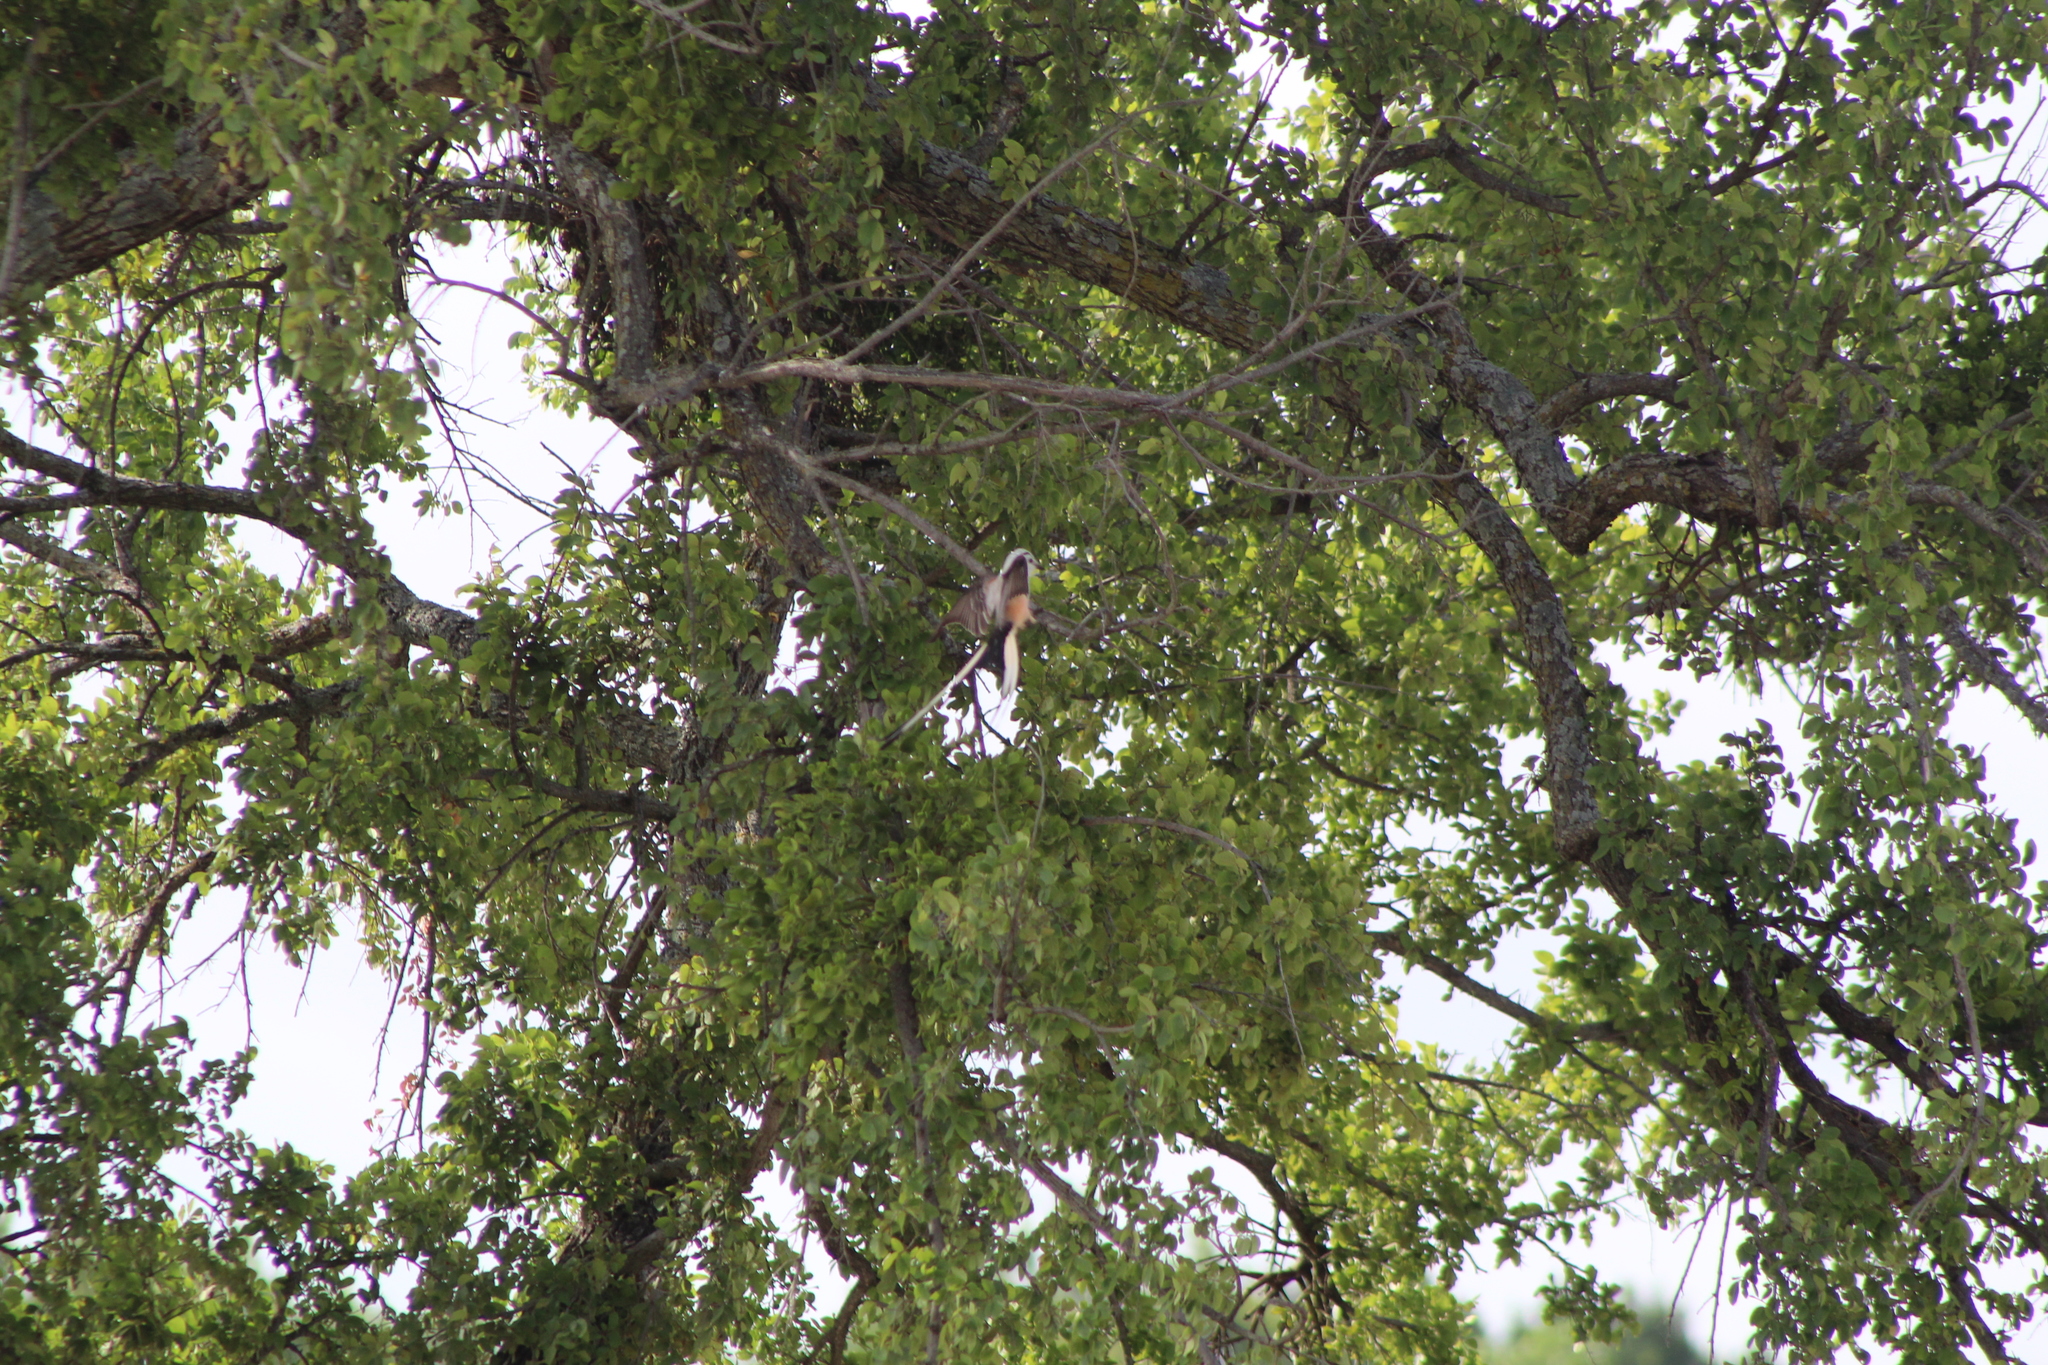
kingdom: Animalia
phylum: Chordata
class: Aves
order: Passeriformes
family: Tyrannidae
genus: Tyrannus
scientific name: Tyrannus forficatus
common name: Scissor-tailed flycatcher
